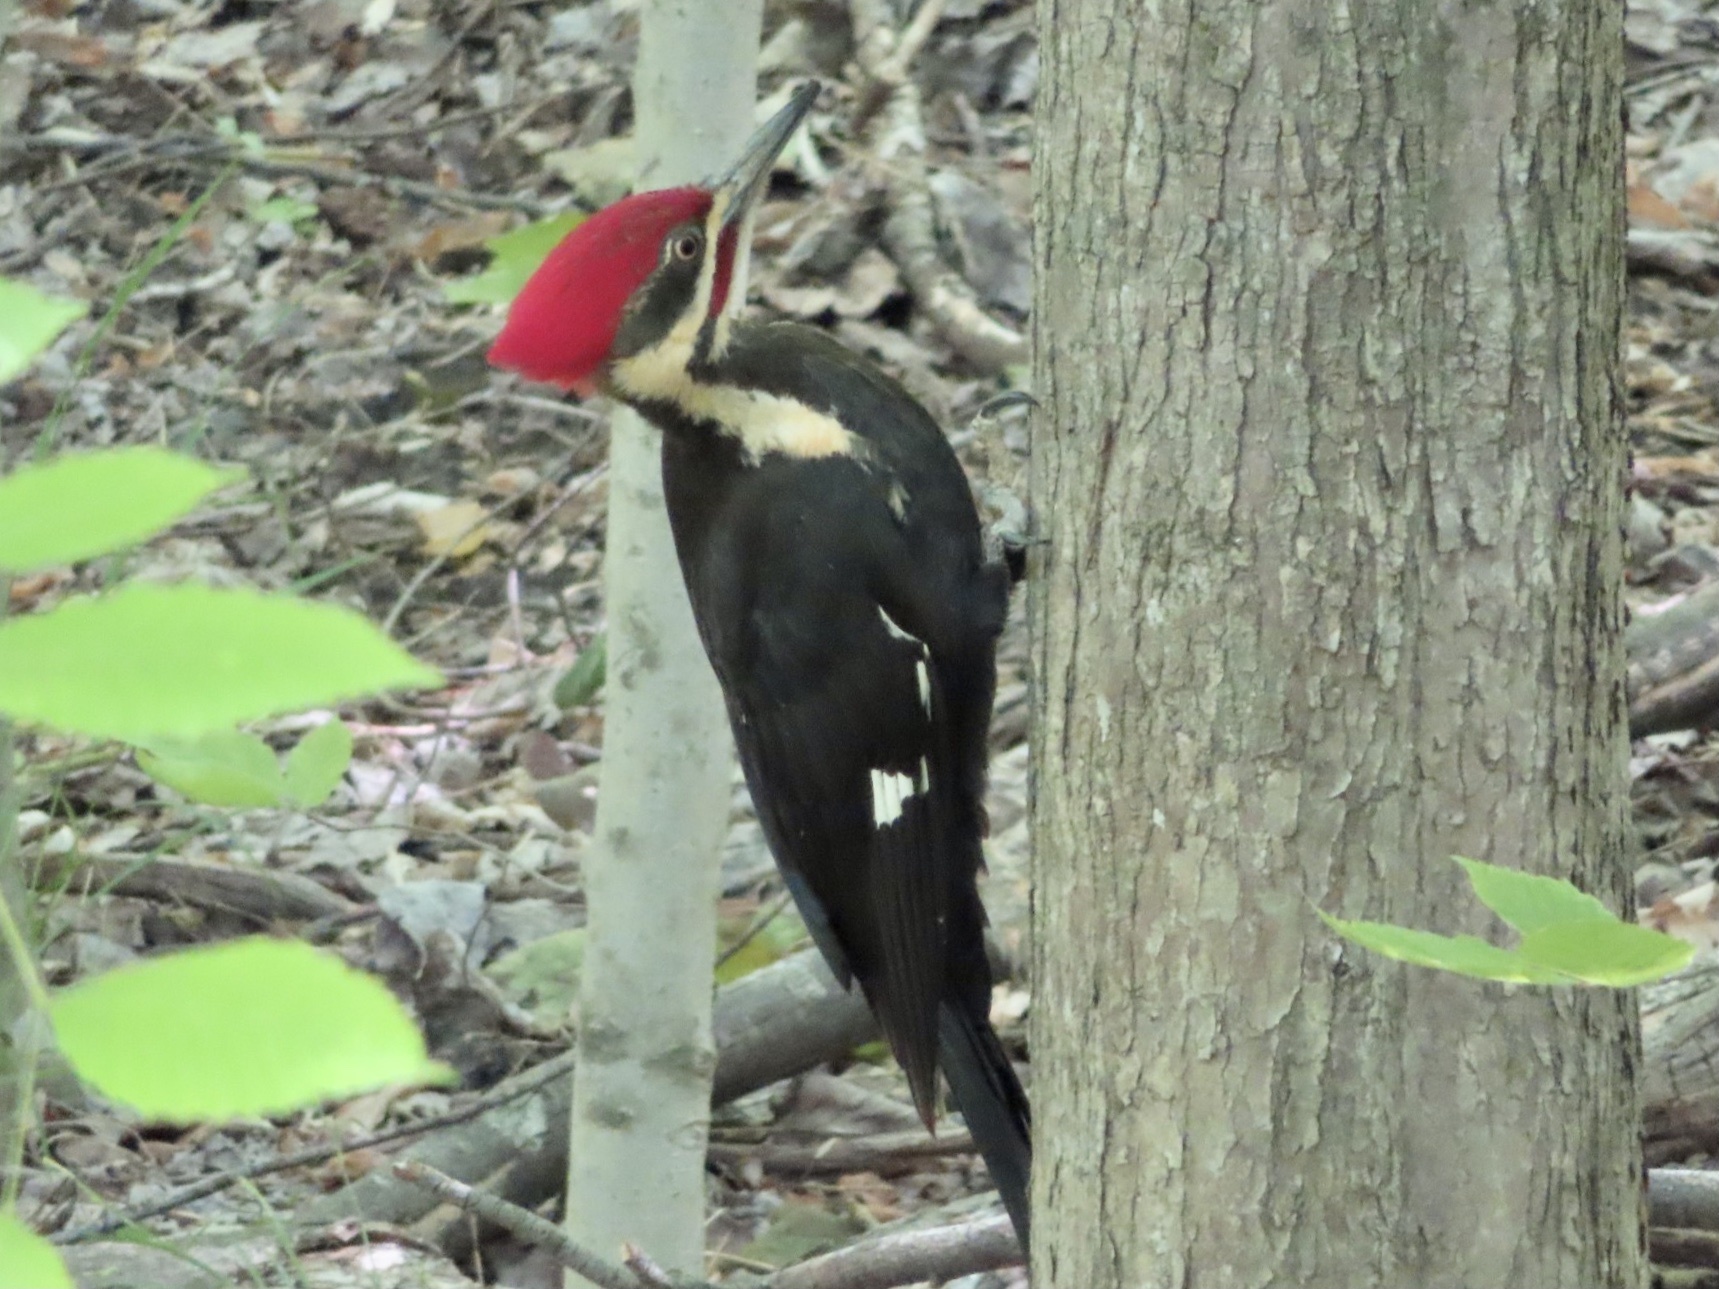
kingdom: Animalia
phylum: Chordata
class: Aves
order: Piciformes
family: Picidae
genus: Dryocopus
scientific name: Dryocopus pileatus
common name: Pileated woodpecker
